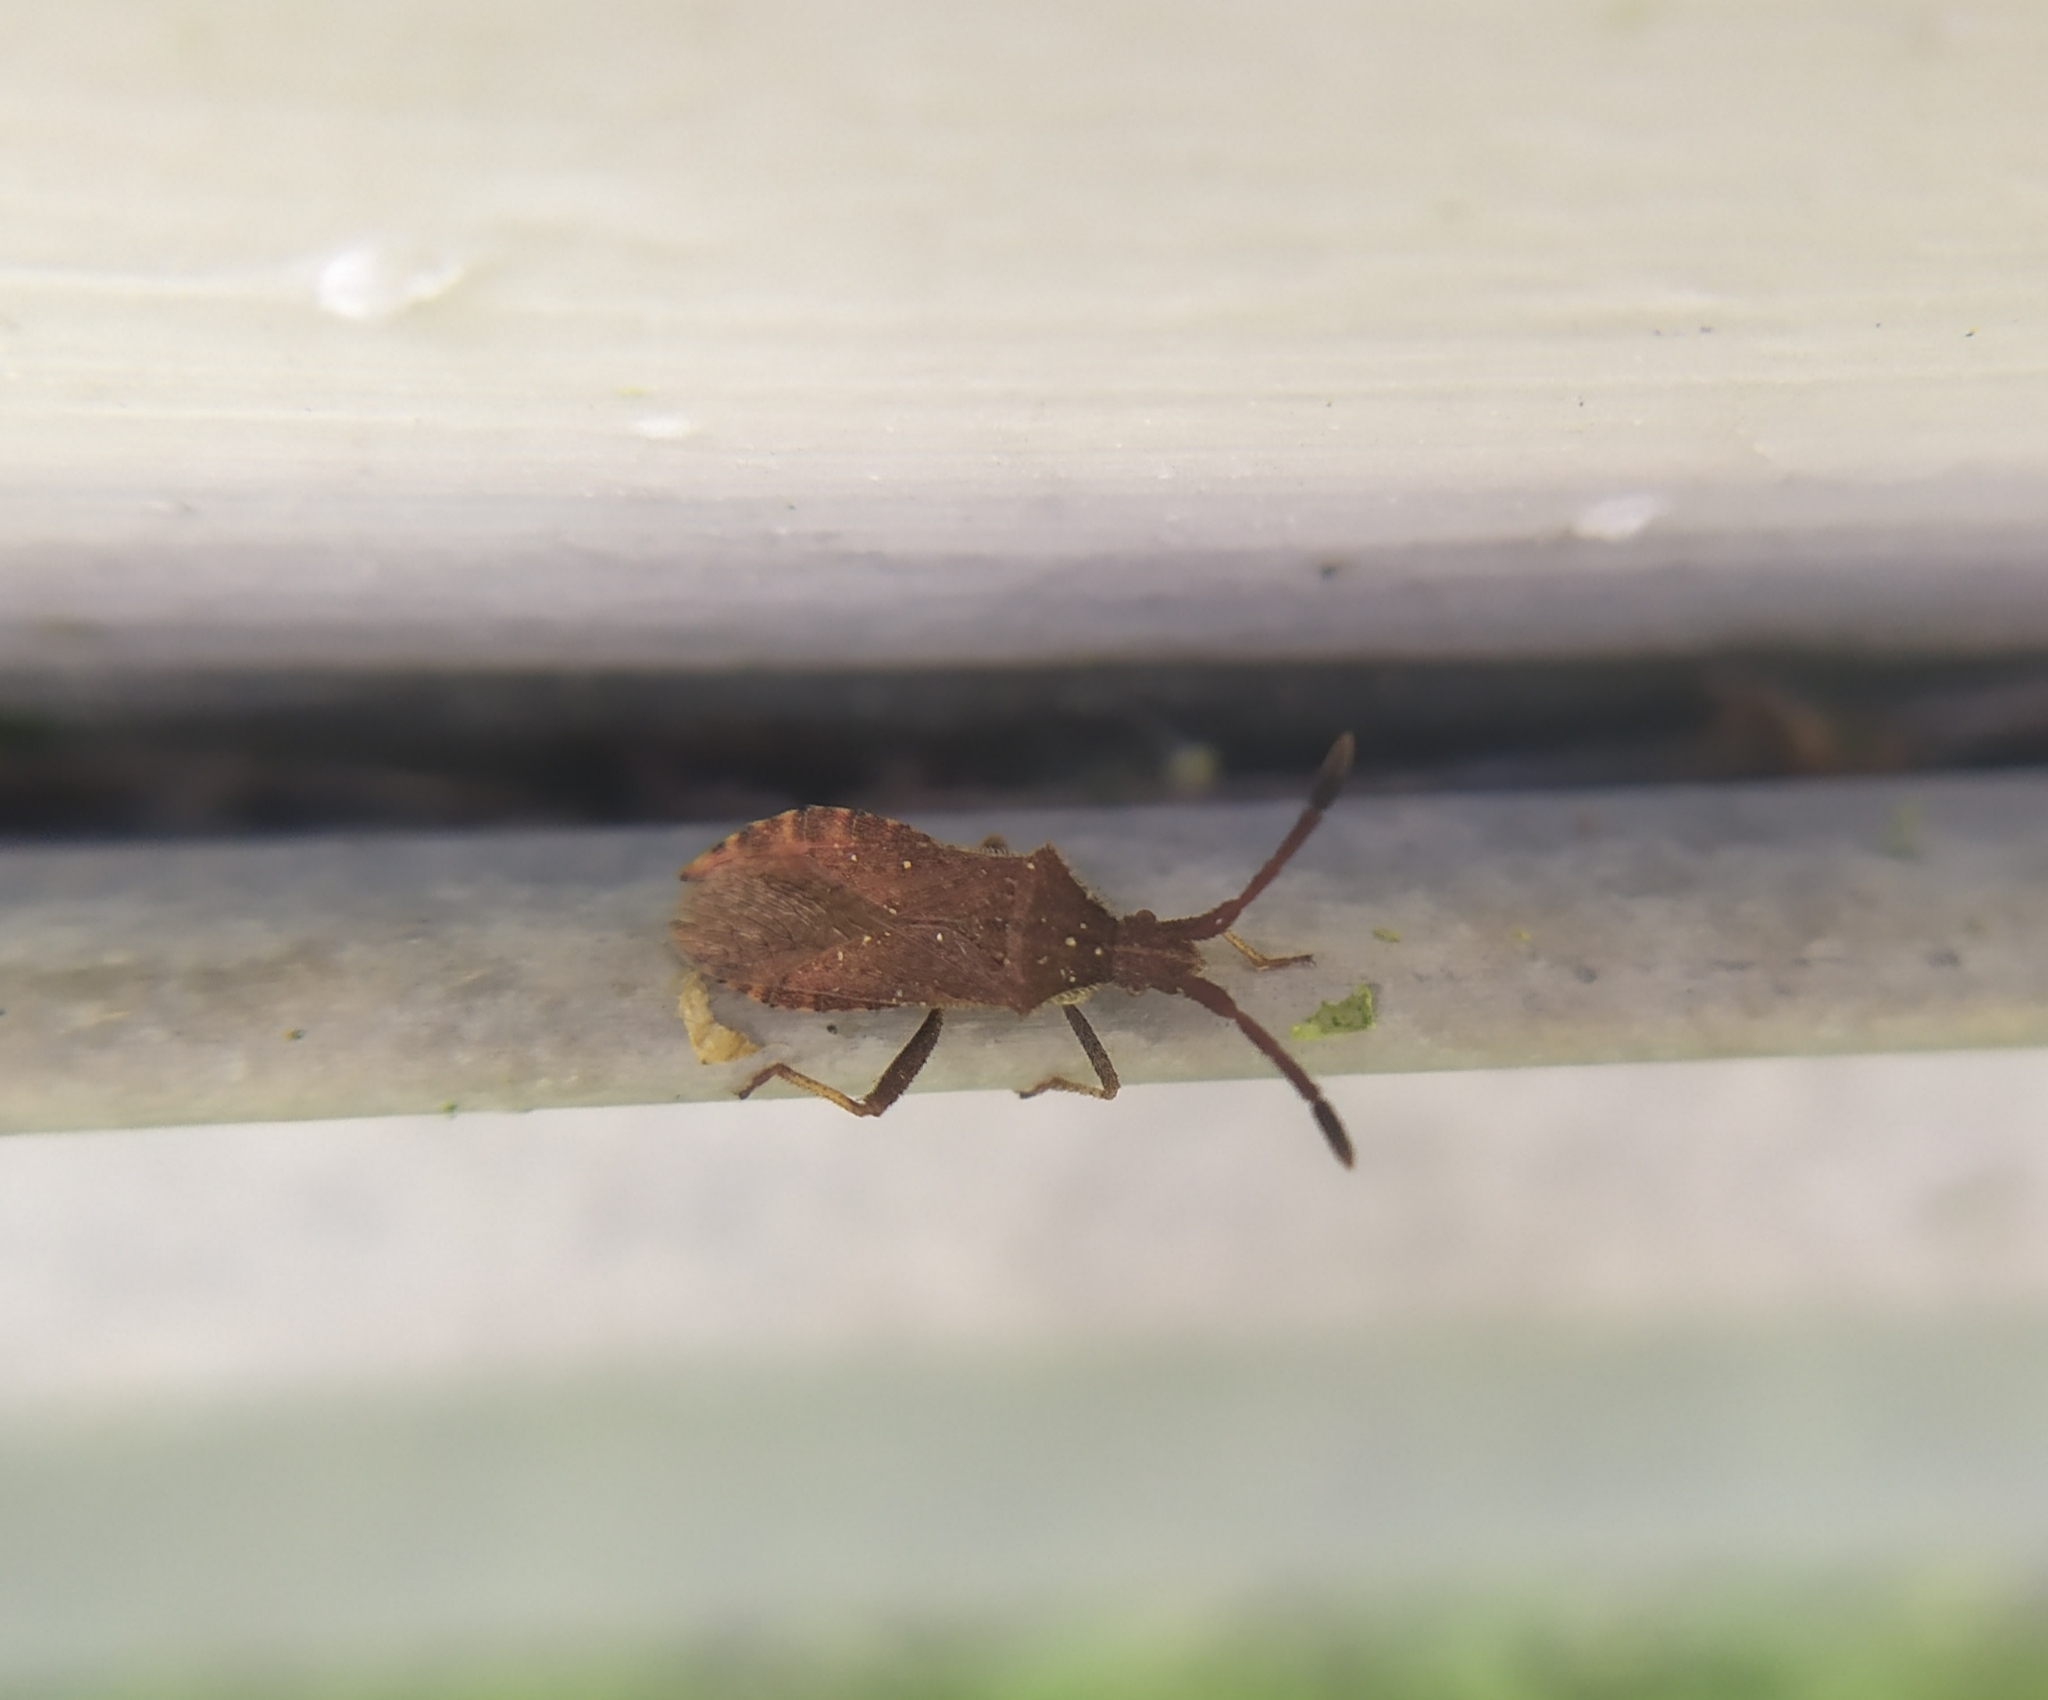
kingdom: Animalia
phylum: Arthropoda
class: Insecta
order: Hemiptera
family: Coreidae
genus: Coriomeris
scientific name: Coriomeris denticulatus
